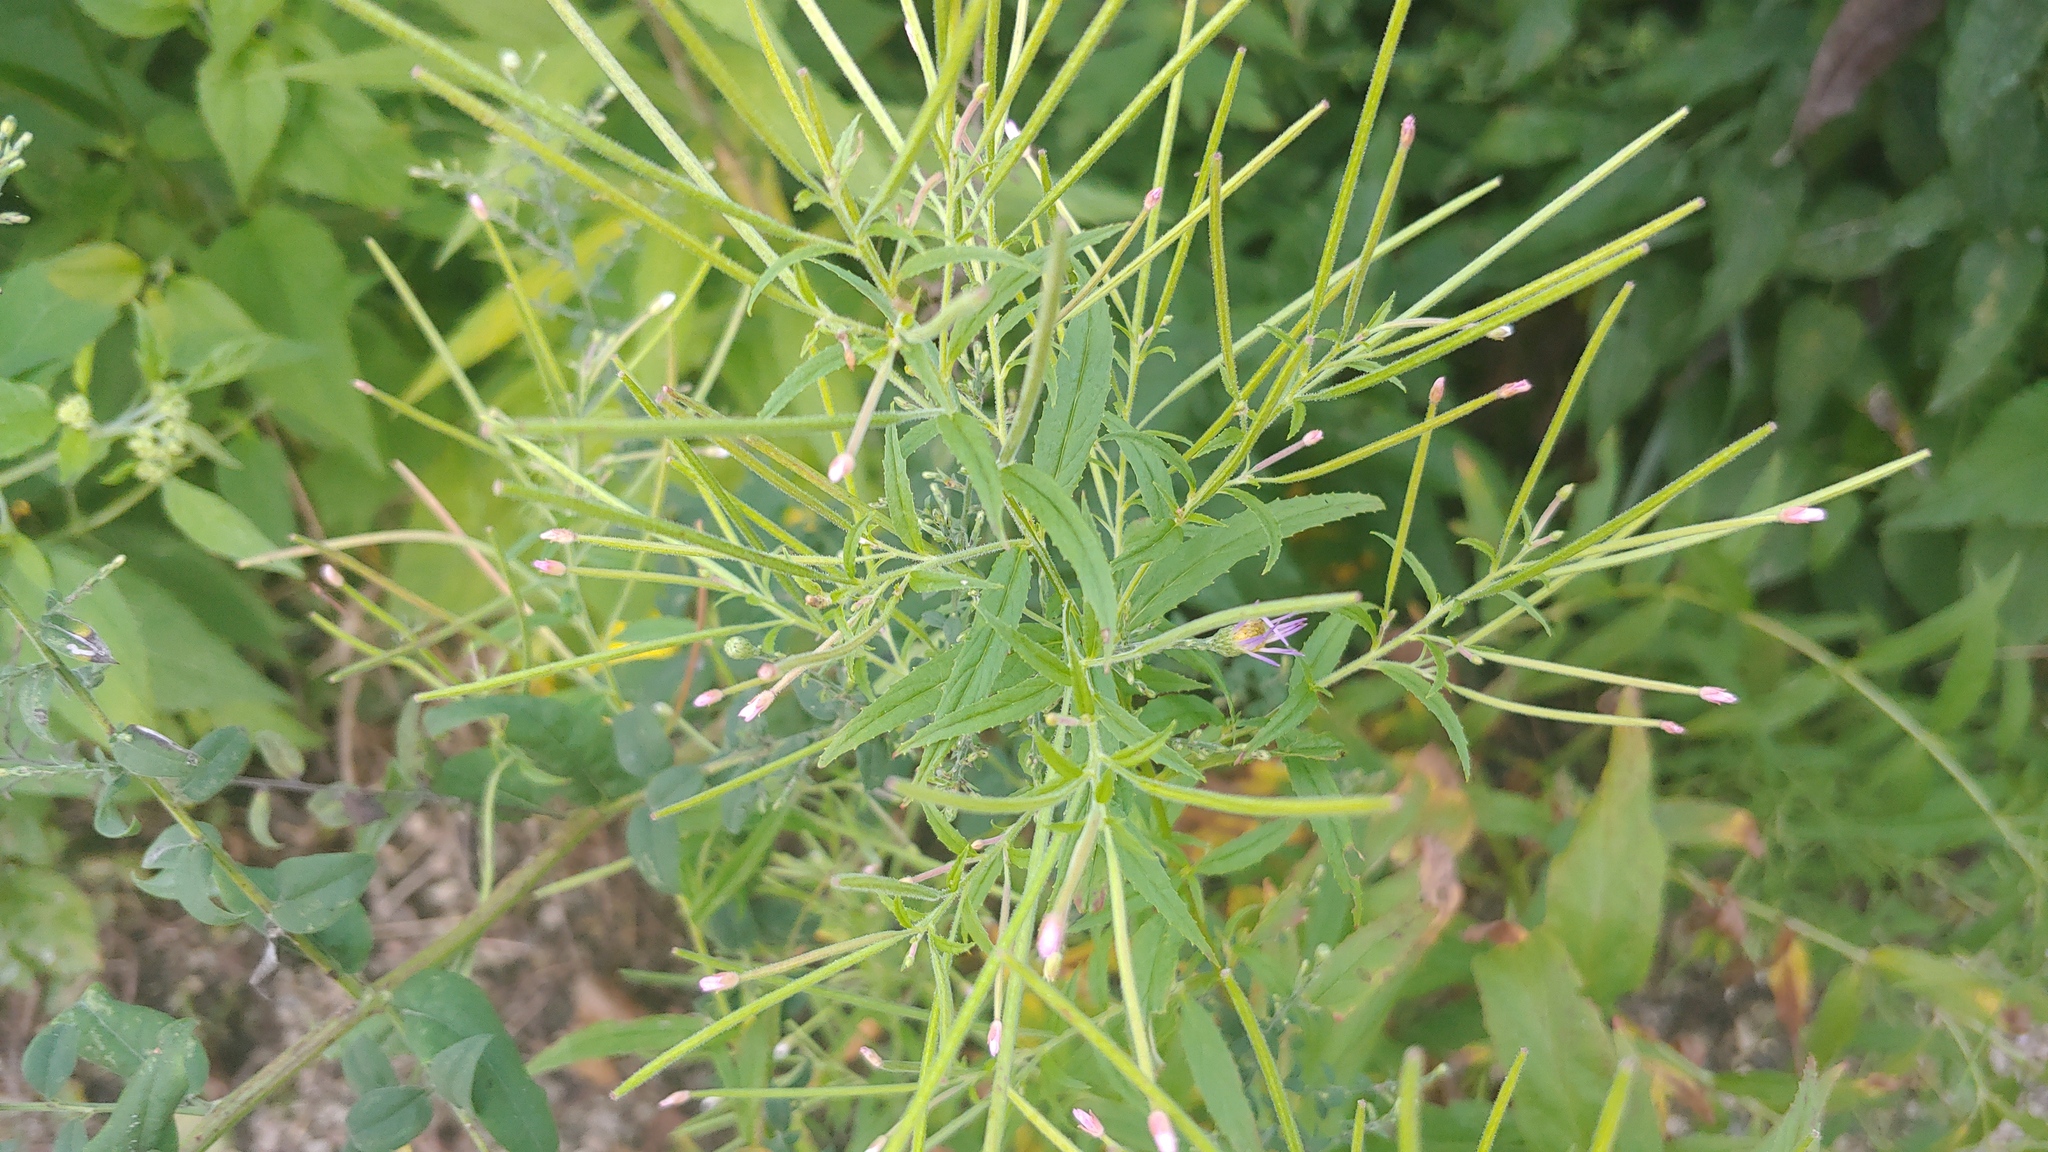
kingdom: Plantae
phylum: Tracheophyta
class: Magnoliopsida
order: Myrtales
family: Onagraceae
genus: Epilobium
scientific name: Epilobium coloratum
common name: Bronze willowherb
